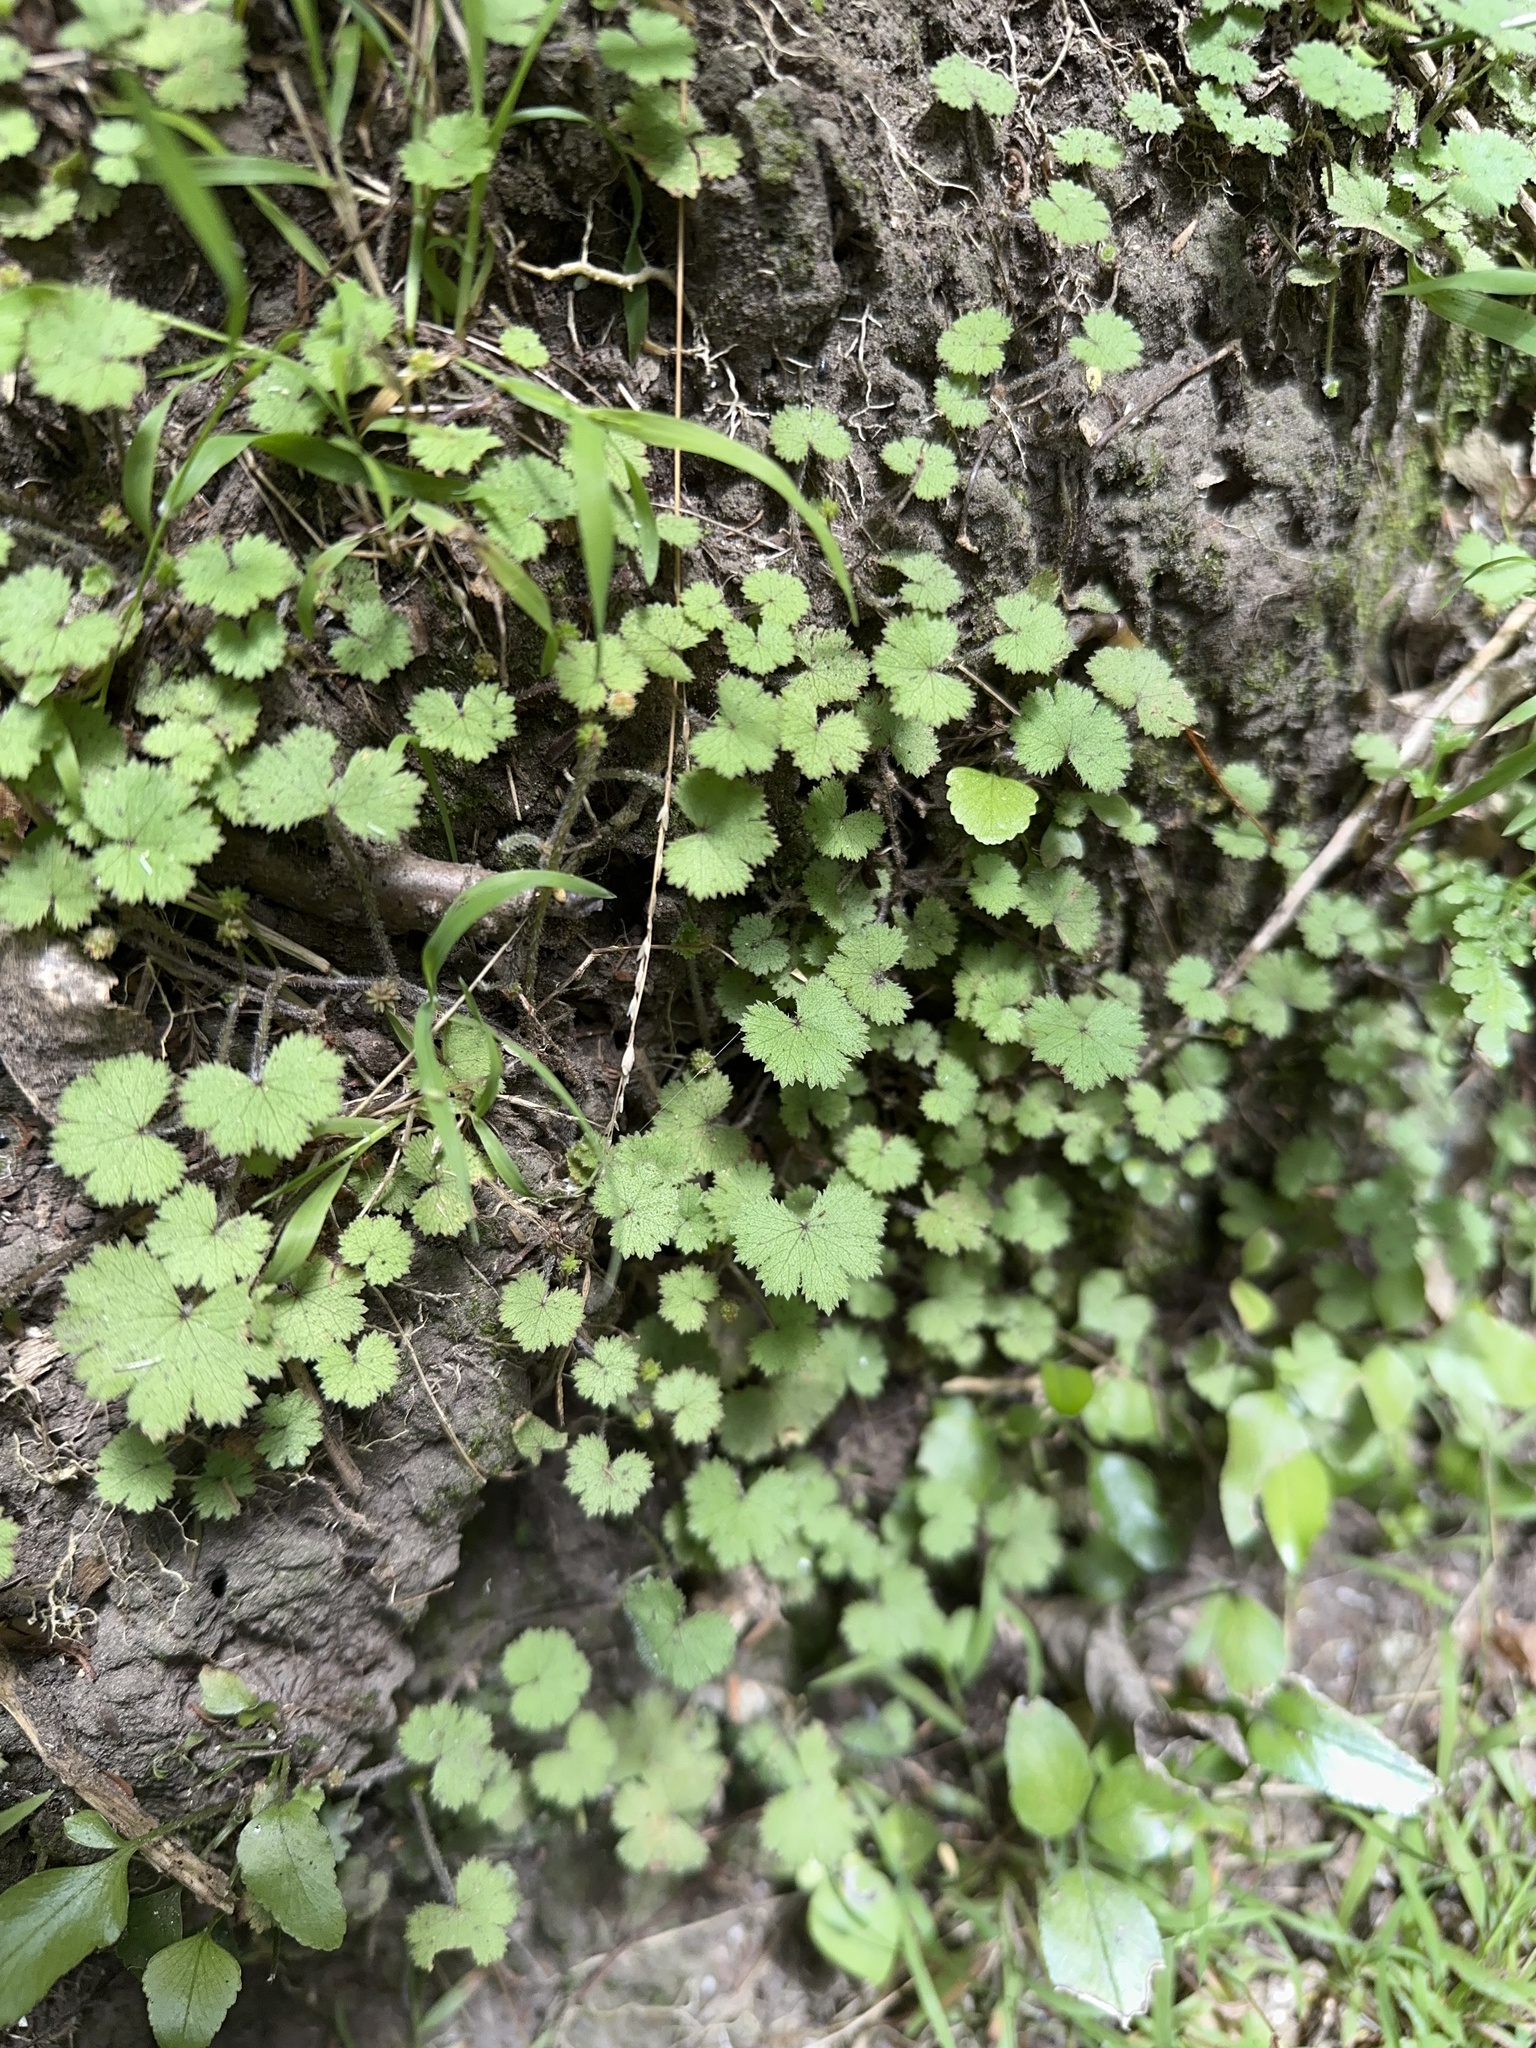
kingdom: Plantae
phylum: Tracheophyta
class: Magnoliopsida
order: Apiales
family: Araliaceae
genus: Hydrocotyle
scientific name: Hydrocotyle moschata
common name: Hairy pennywort
